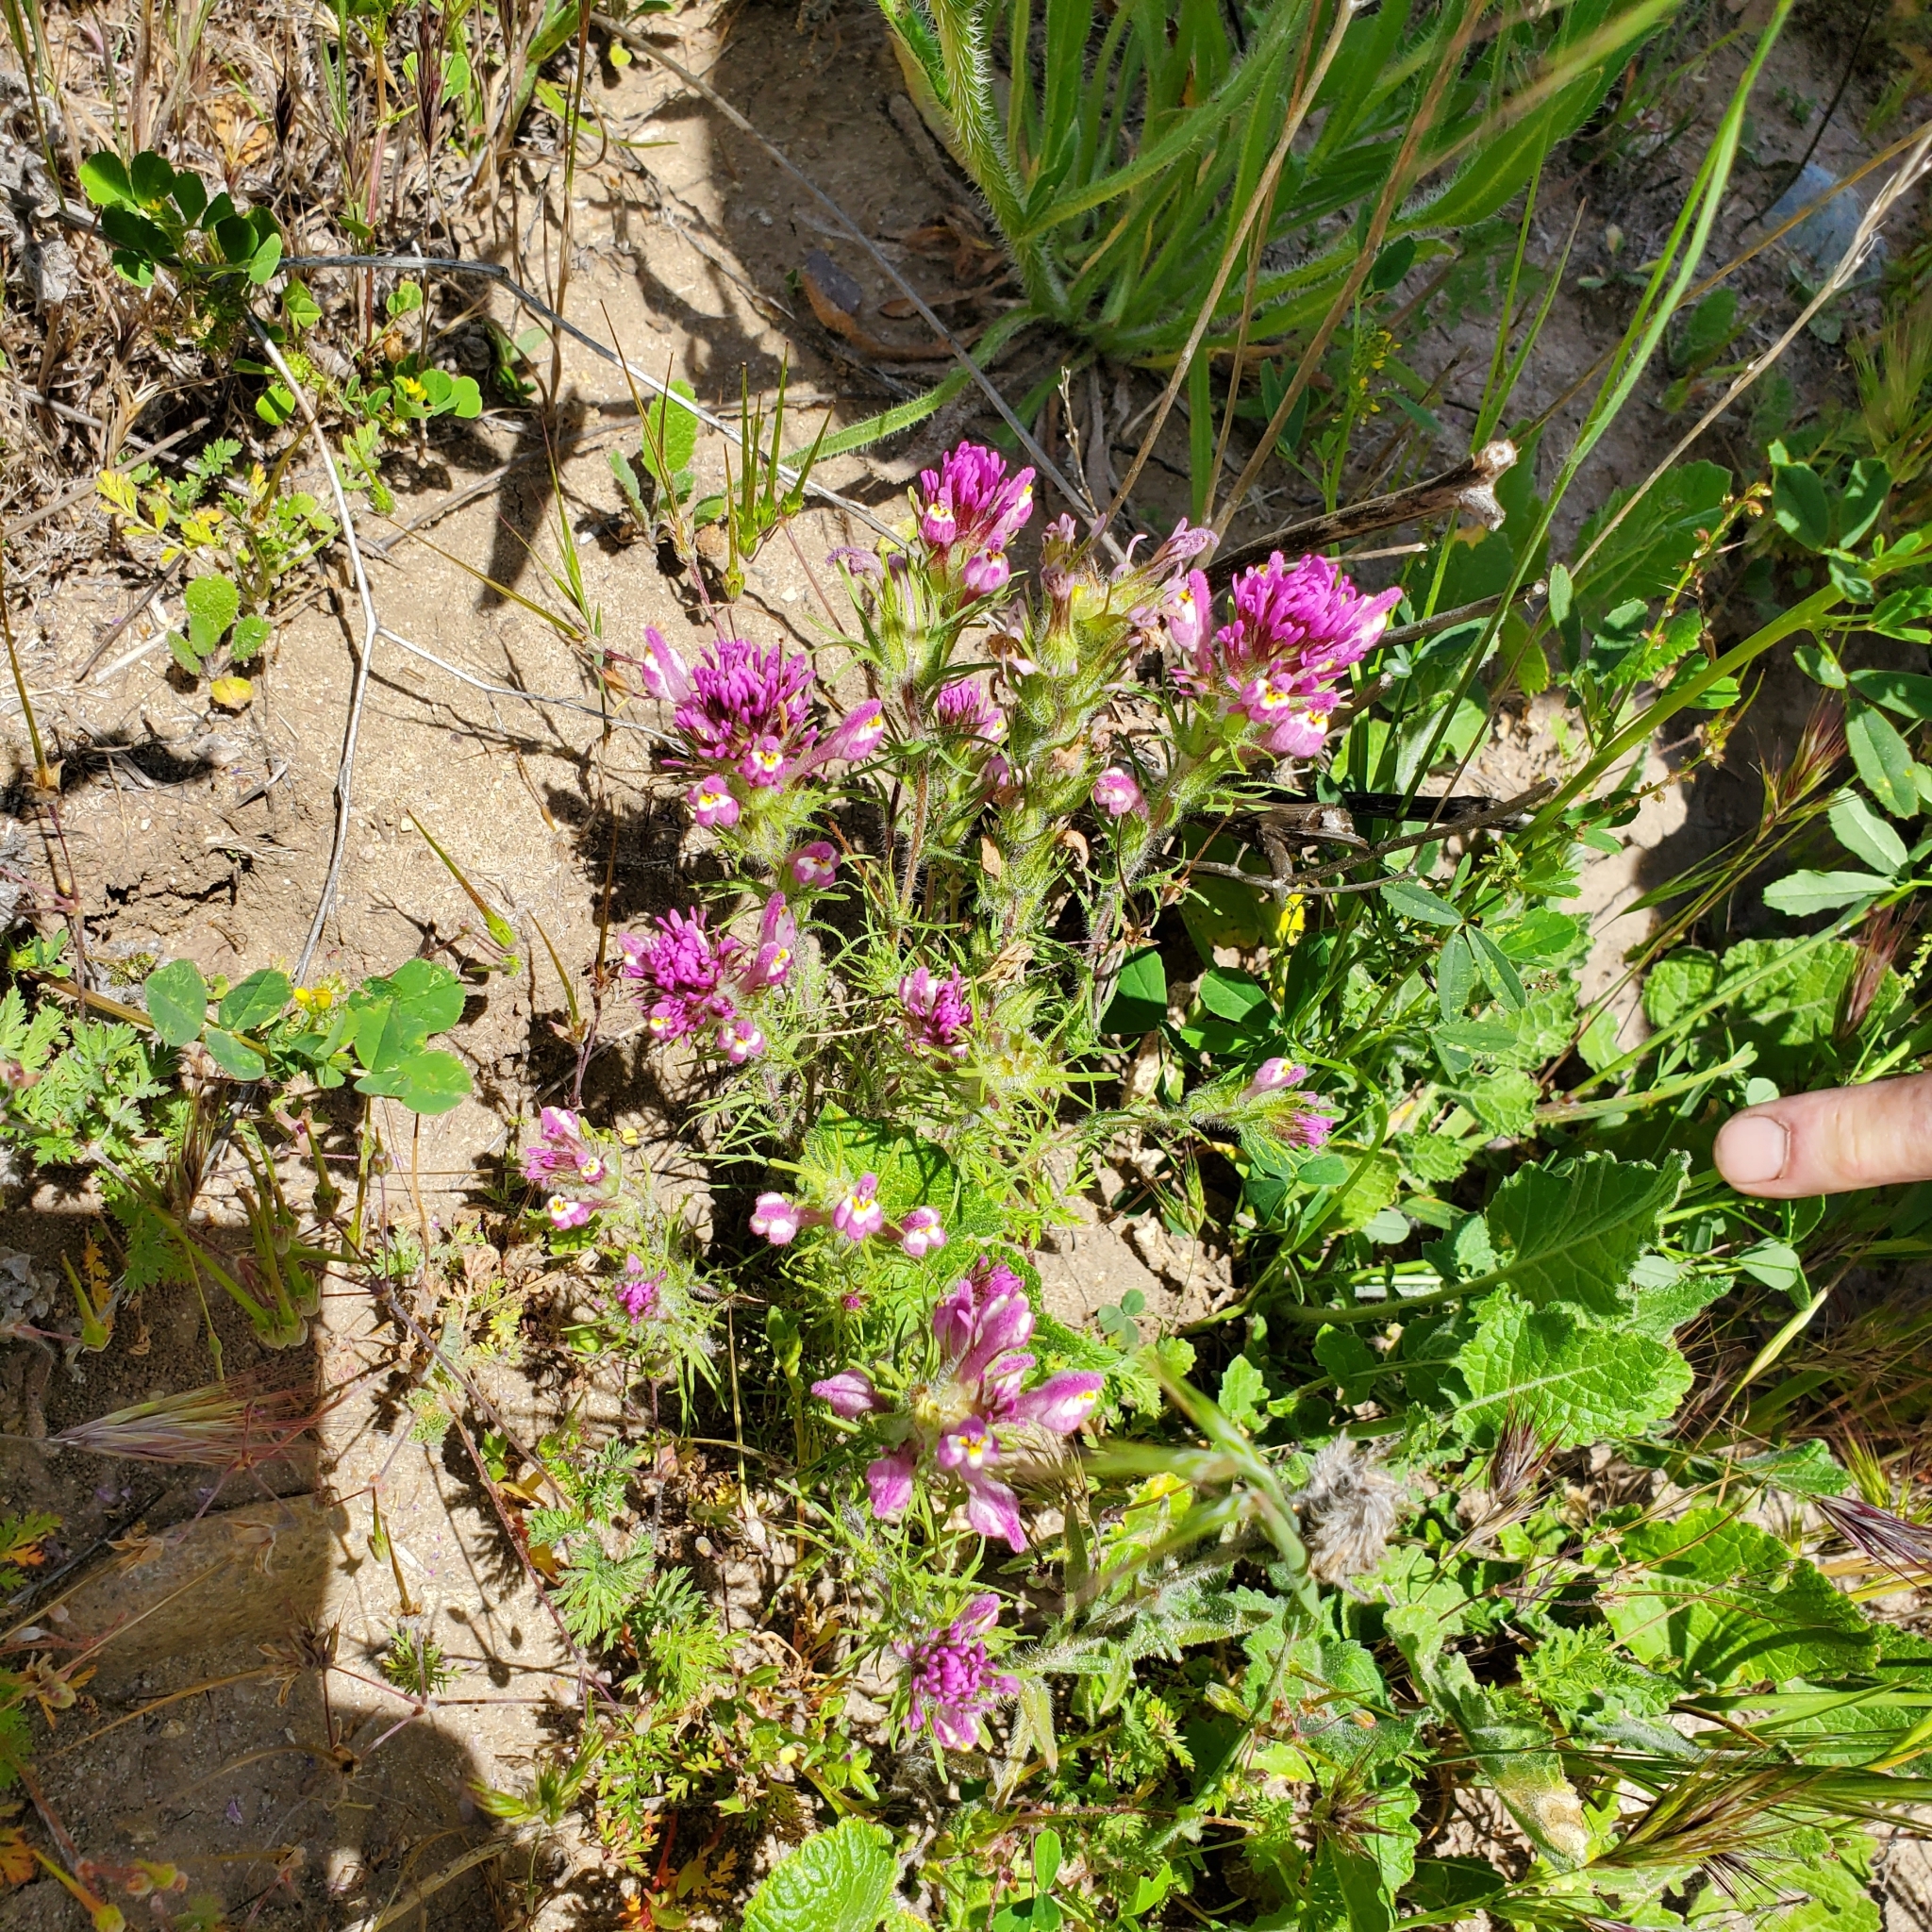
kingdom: Plantae
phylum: Tracheophyta
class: Magnoliopsida
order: Lamiales
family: Orobanchaceae
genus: Castilleja
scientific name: Castilleja exserta
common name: Purple owl-clover
